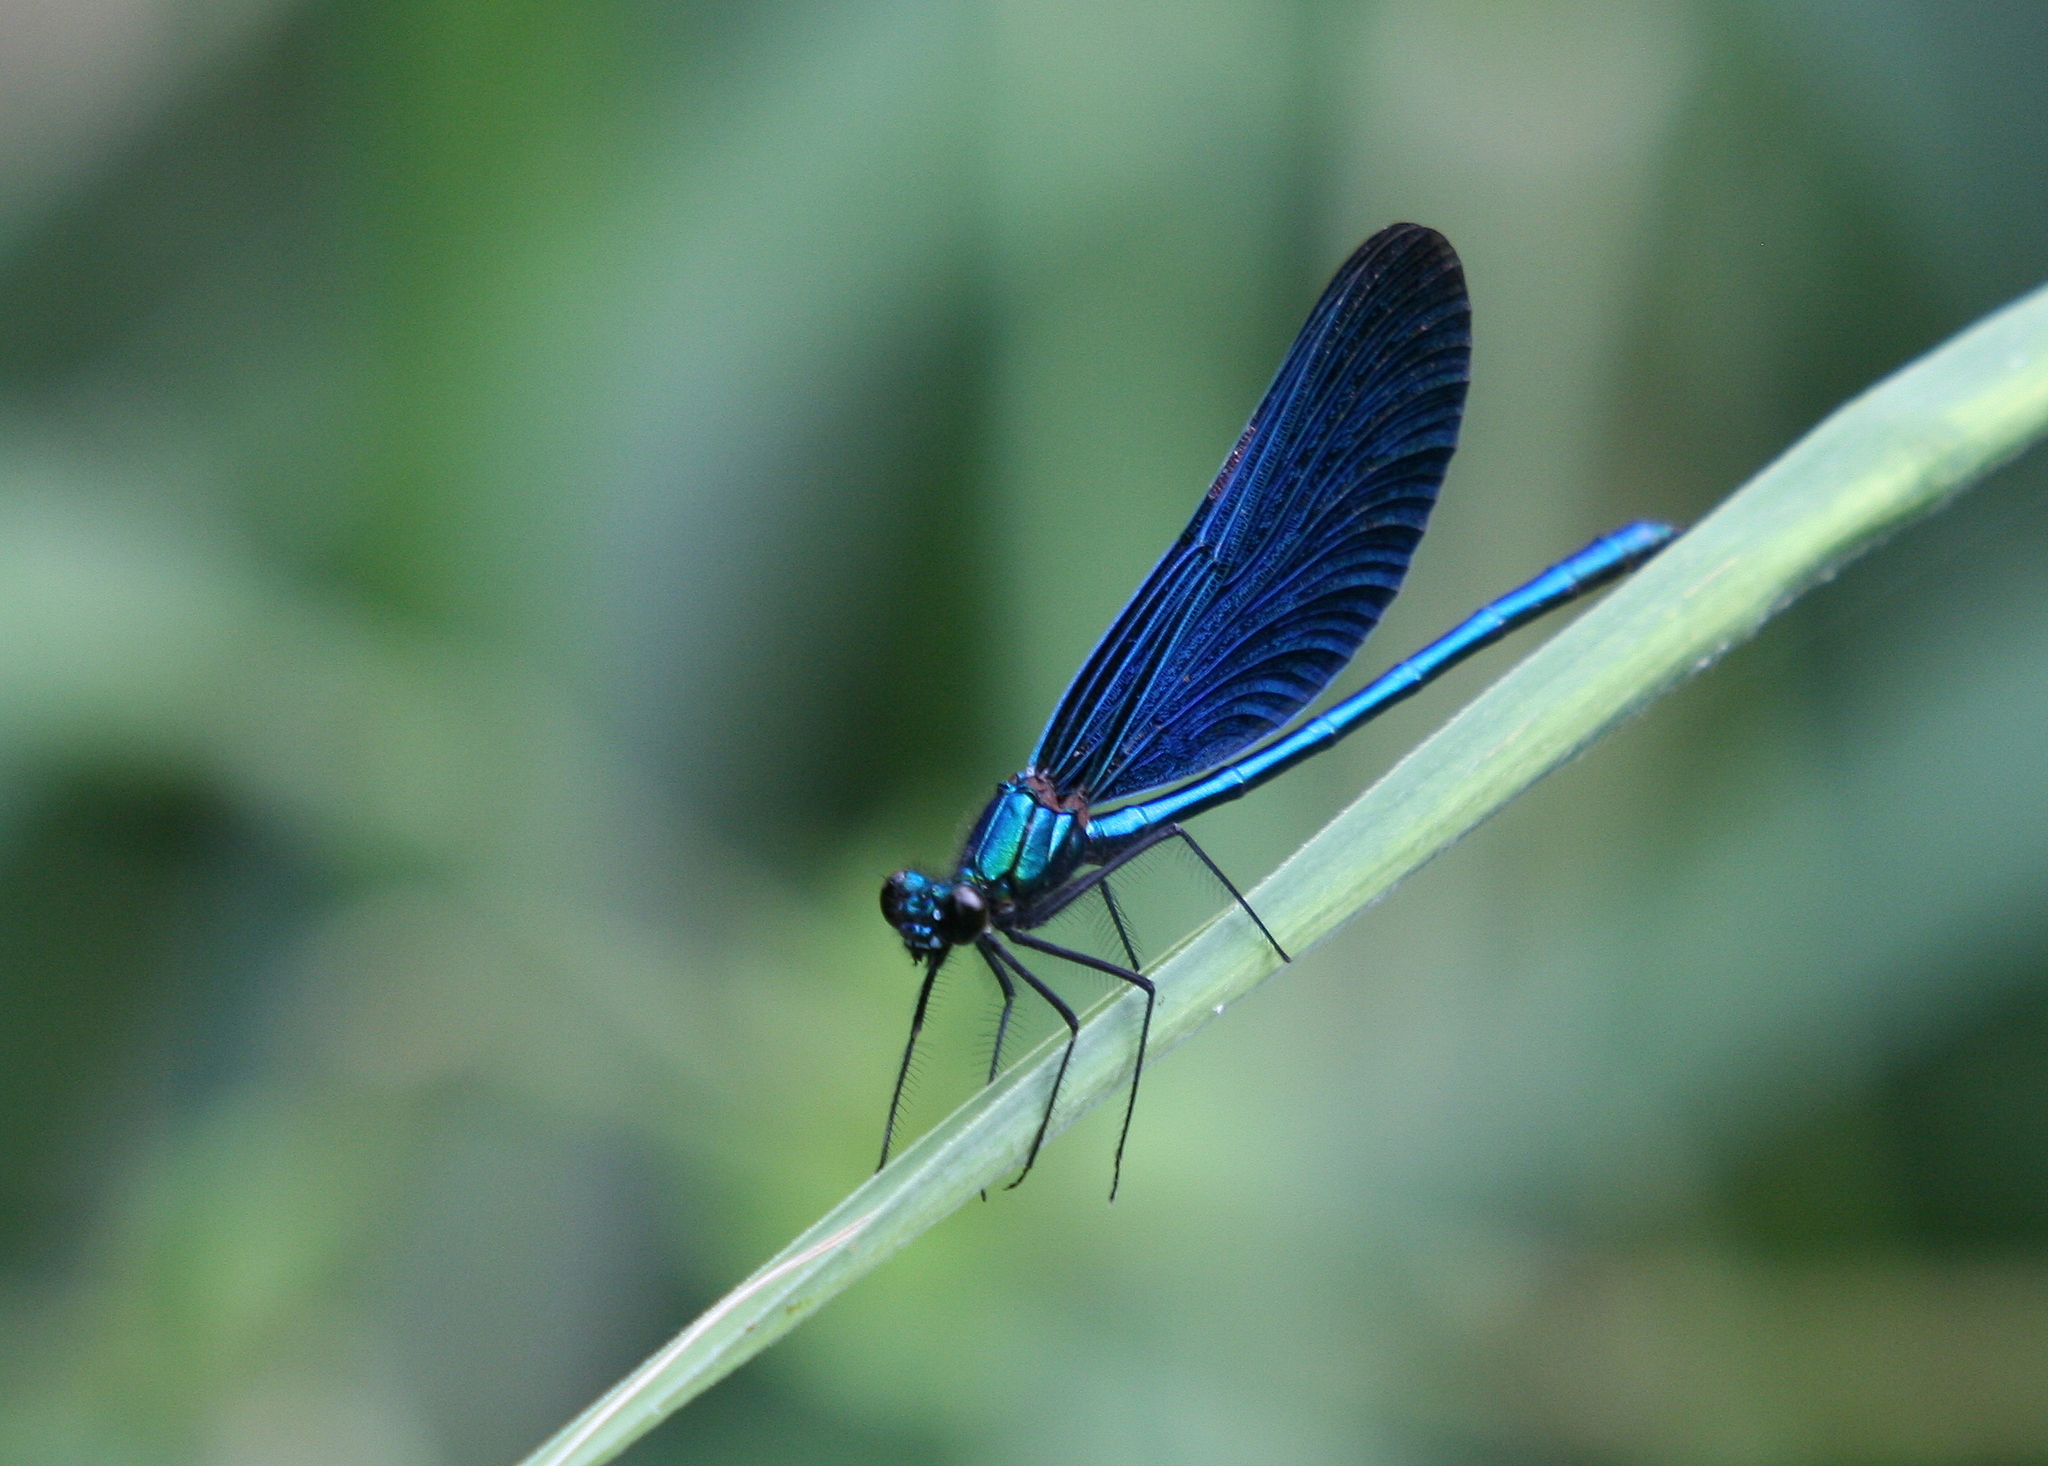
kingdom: Animalia
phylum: Arthropoda
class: Insecta
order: Odonata
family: Calopterygidae
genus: Calopteryx
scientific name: Calopteryx virgo
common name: Beautiful demoiselle
